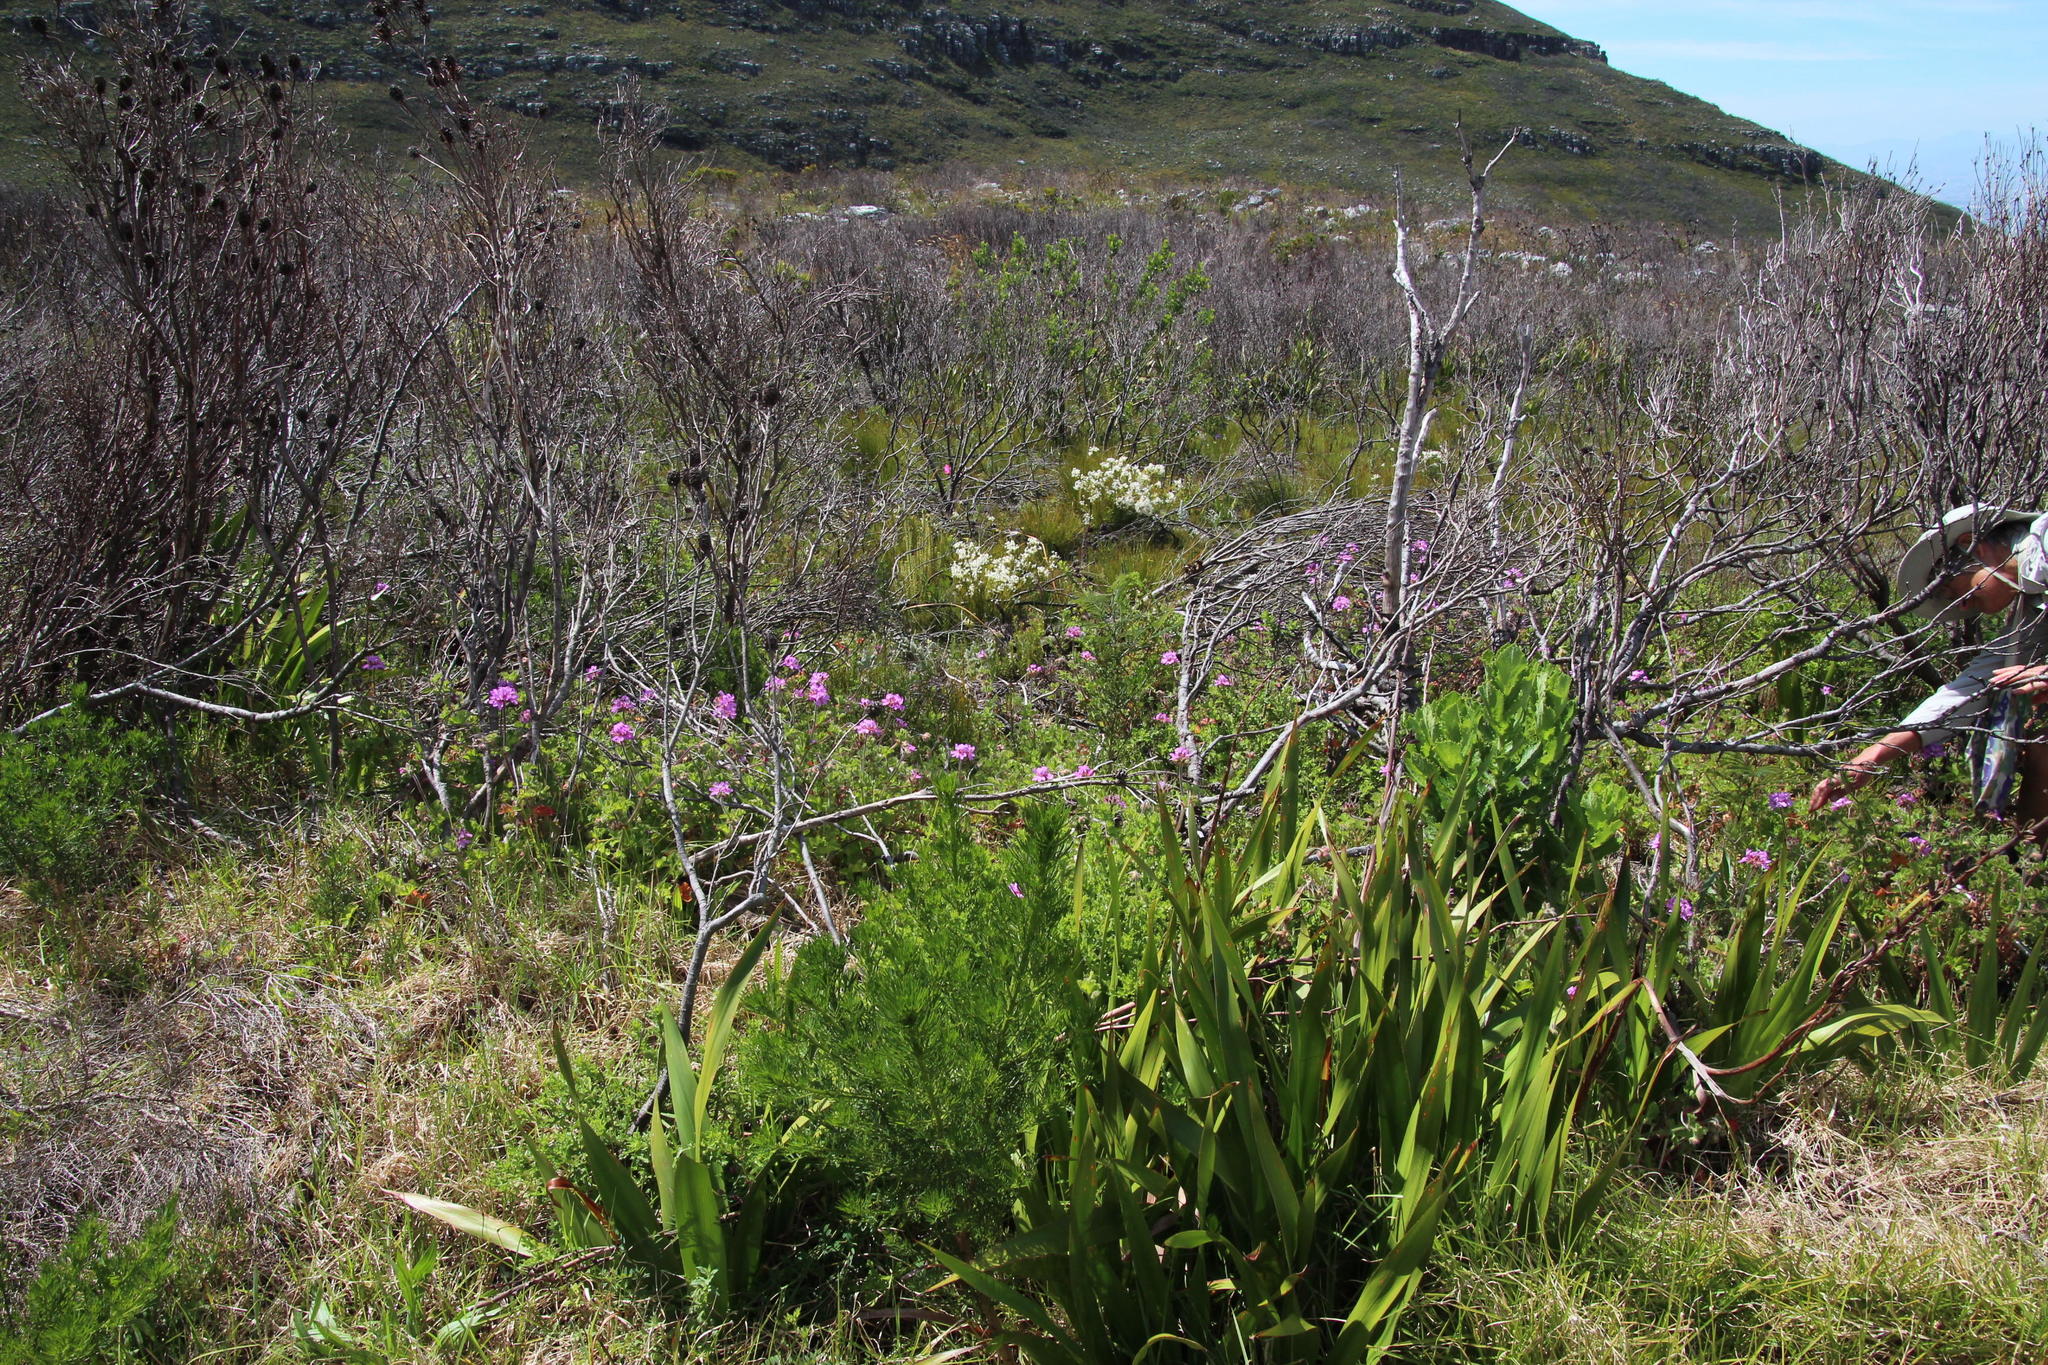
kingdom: Plantae
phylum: Tracheophyta
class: Magnoliopsida
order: Geraniales
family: Geraniaceae
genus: Pelargonium
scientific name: Pelargonium capitatum
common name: Rose scented geranium
